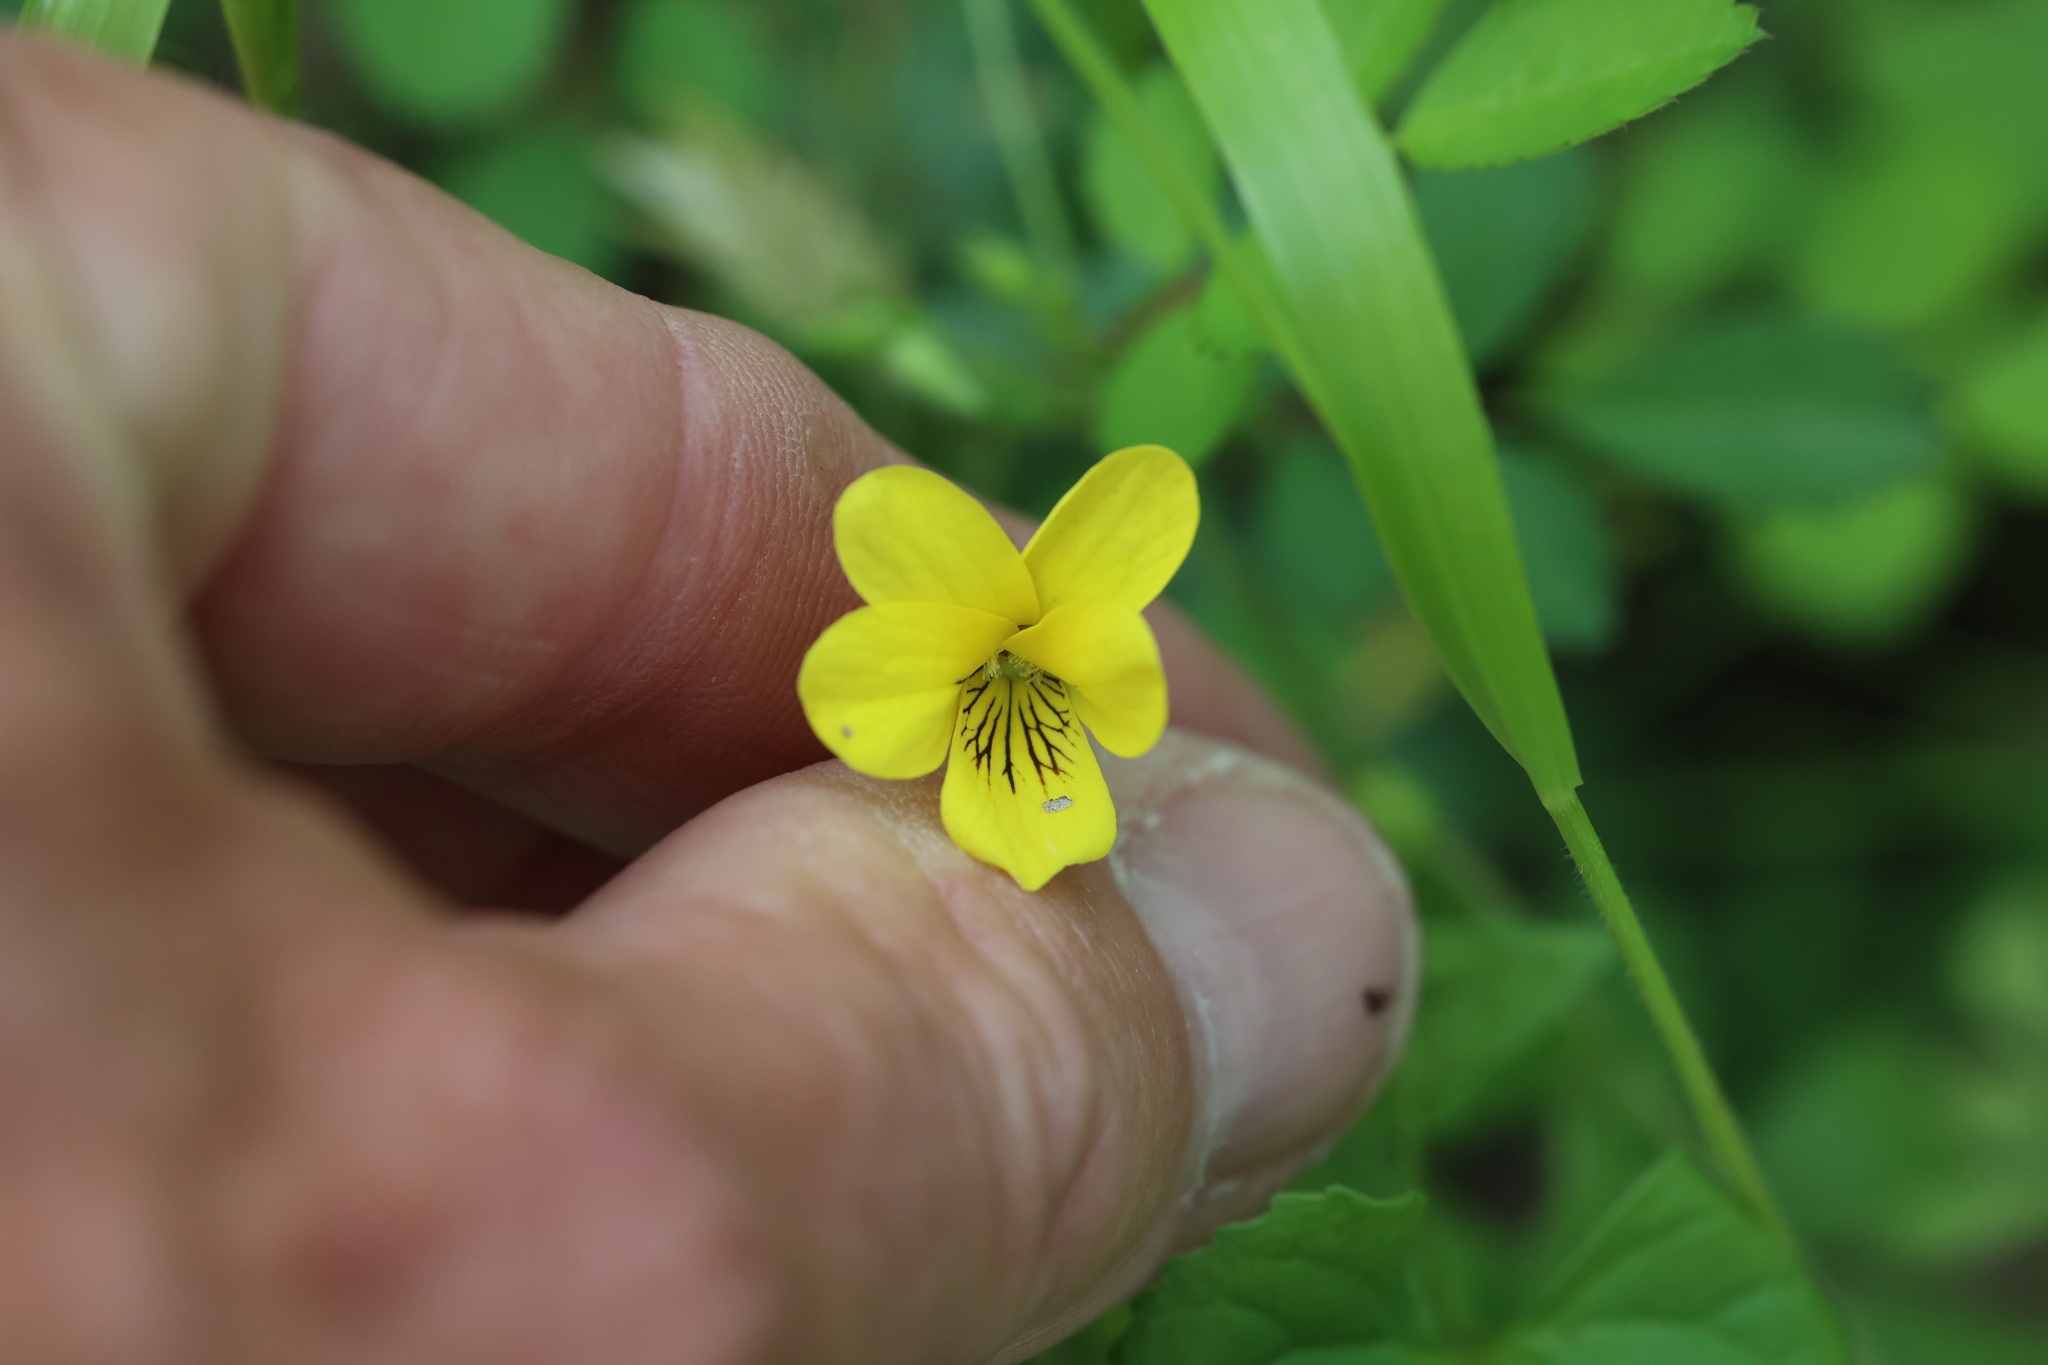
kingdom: Plantae
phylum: Tracheophyta
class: Magnoliopsida
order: Malpighiales
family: Violaceae
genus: Viola
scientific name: Viola eriocarpa
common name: Smooth yellow violet
